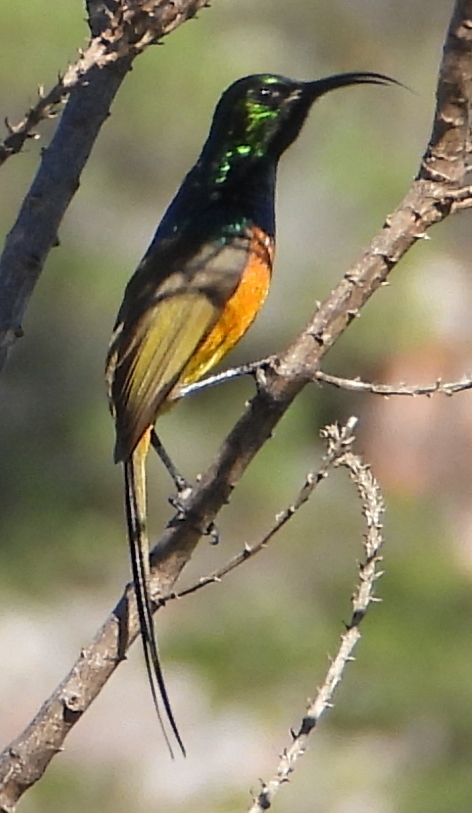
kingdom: Animalia
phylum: Chordata
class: Aves
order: Passeriformes
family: Nectariniidae
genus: Anthobaphes
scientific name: Anthobaphes violacea
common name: Orange-breasted sunbird
